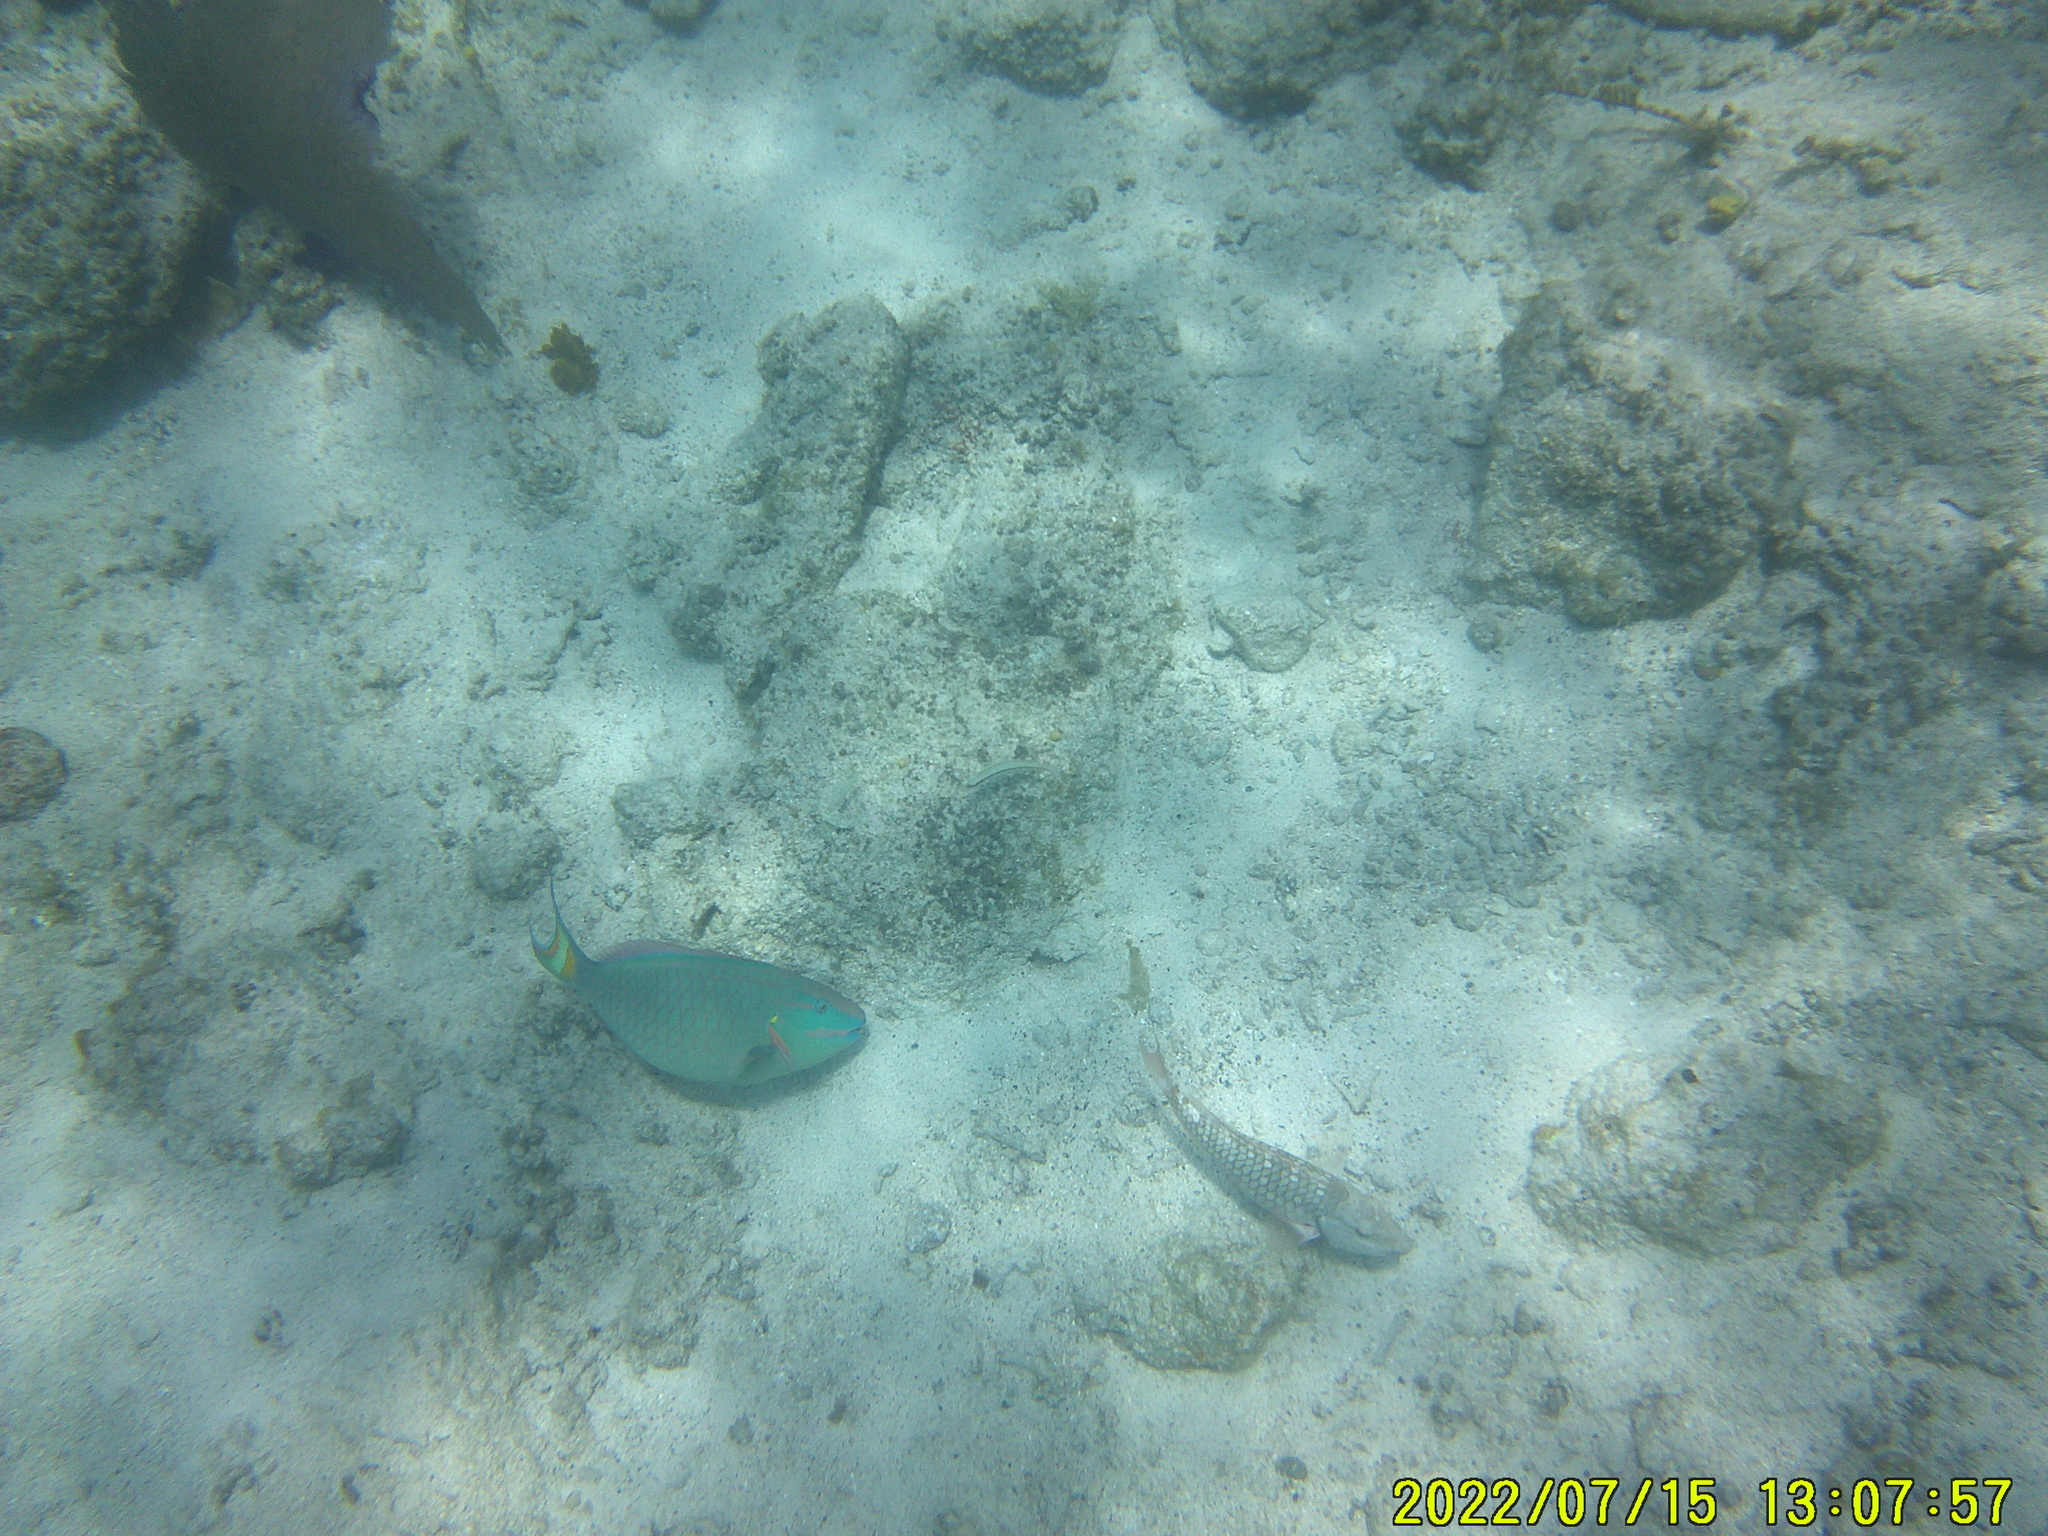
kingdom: Animalia
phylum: Chordata
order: Perciformes
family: Scaridae
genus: Sparisoma
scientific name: Sparisoma viride
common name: Stoplight parrotfish
